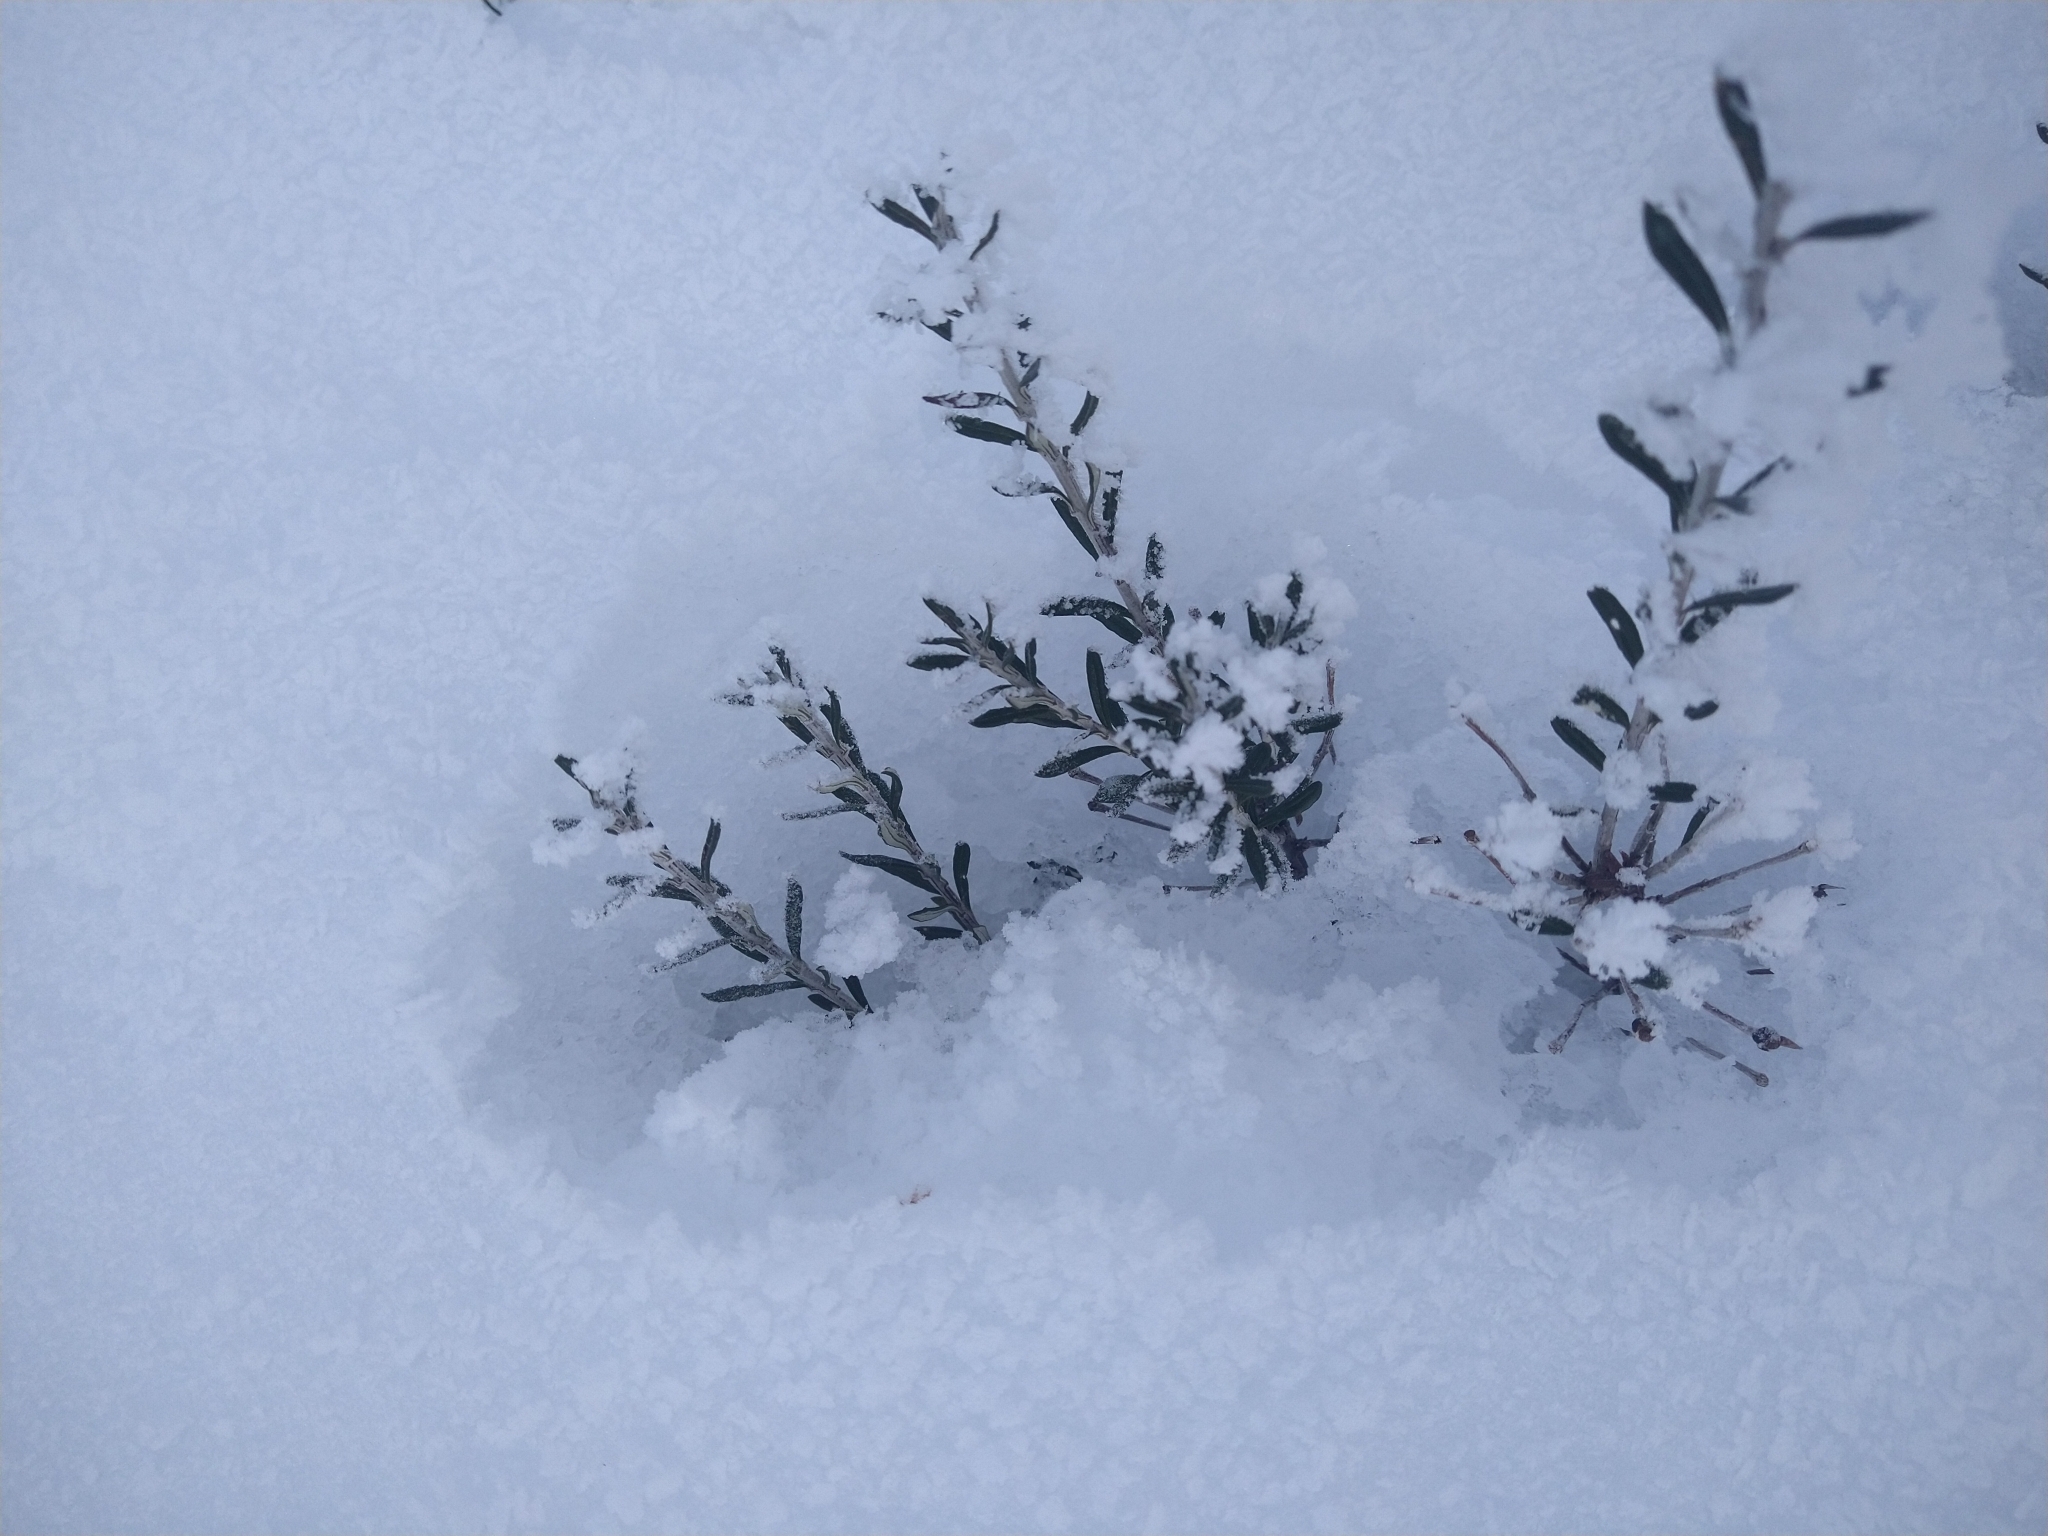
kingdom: Plantae
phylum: Tracheophyta
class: Magnoliopsida
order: Asterales
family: Asteraceae
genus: Chiliotrichum
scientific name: Chiliotrichum diffusum
